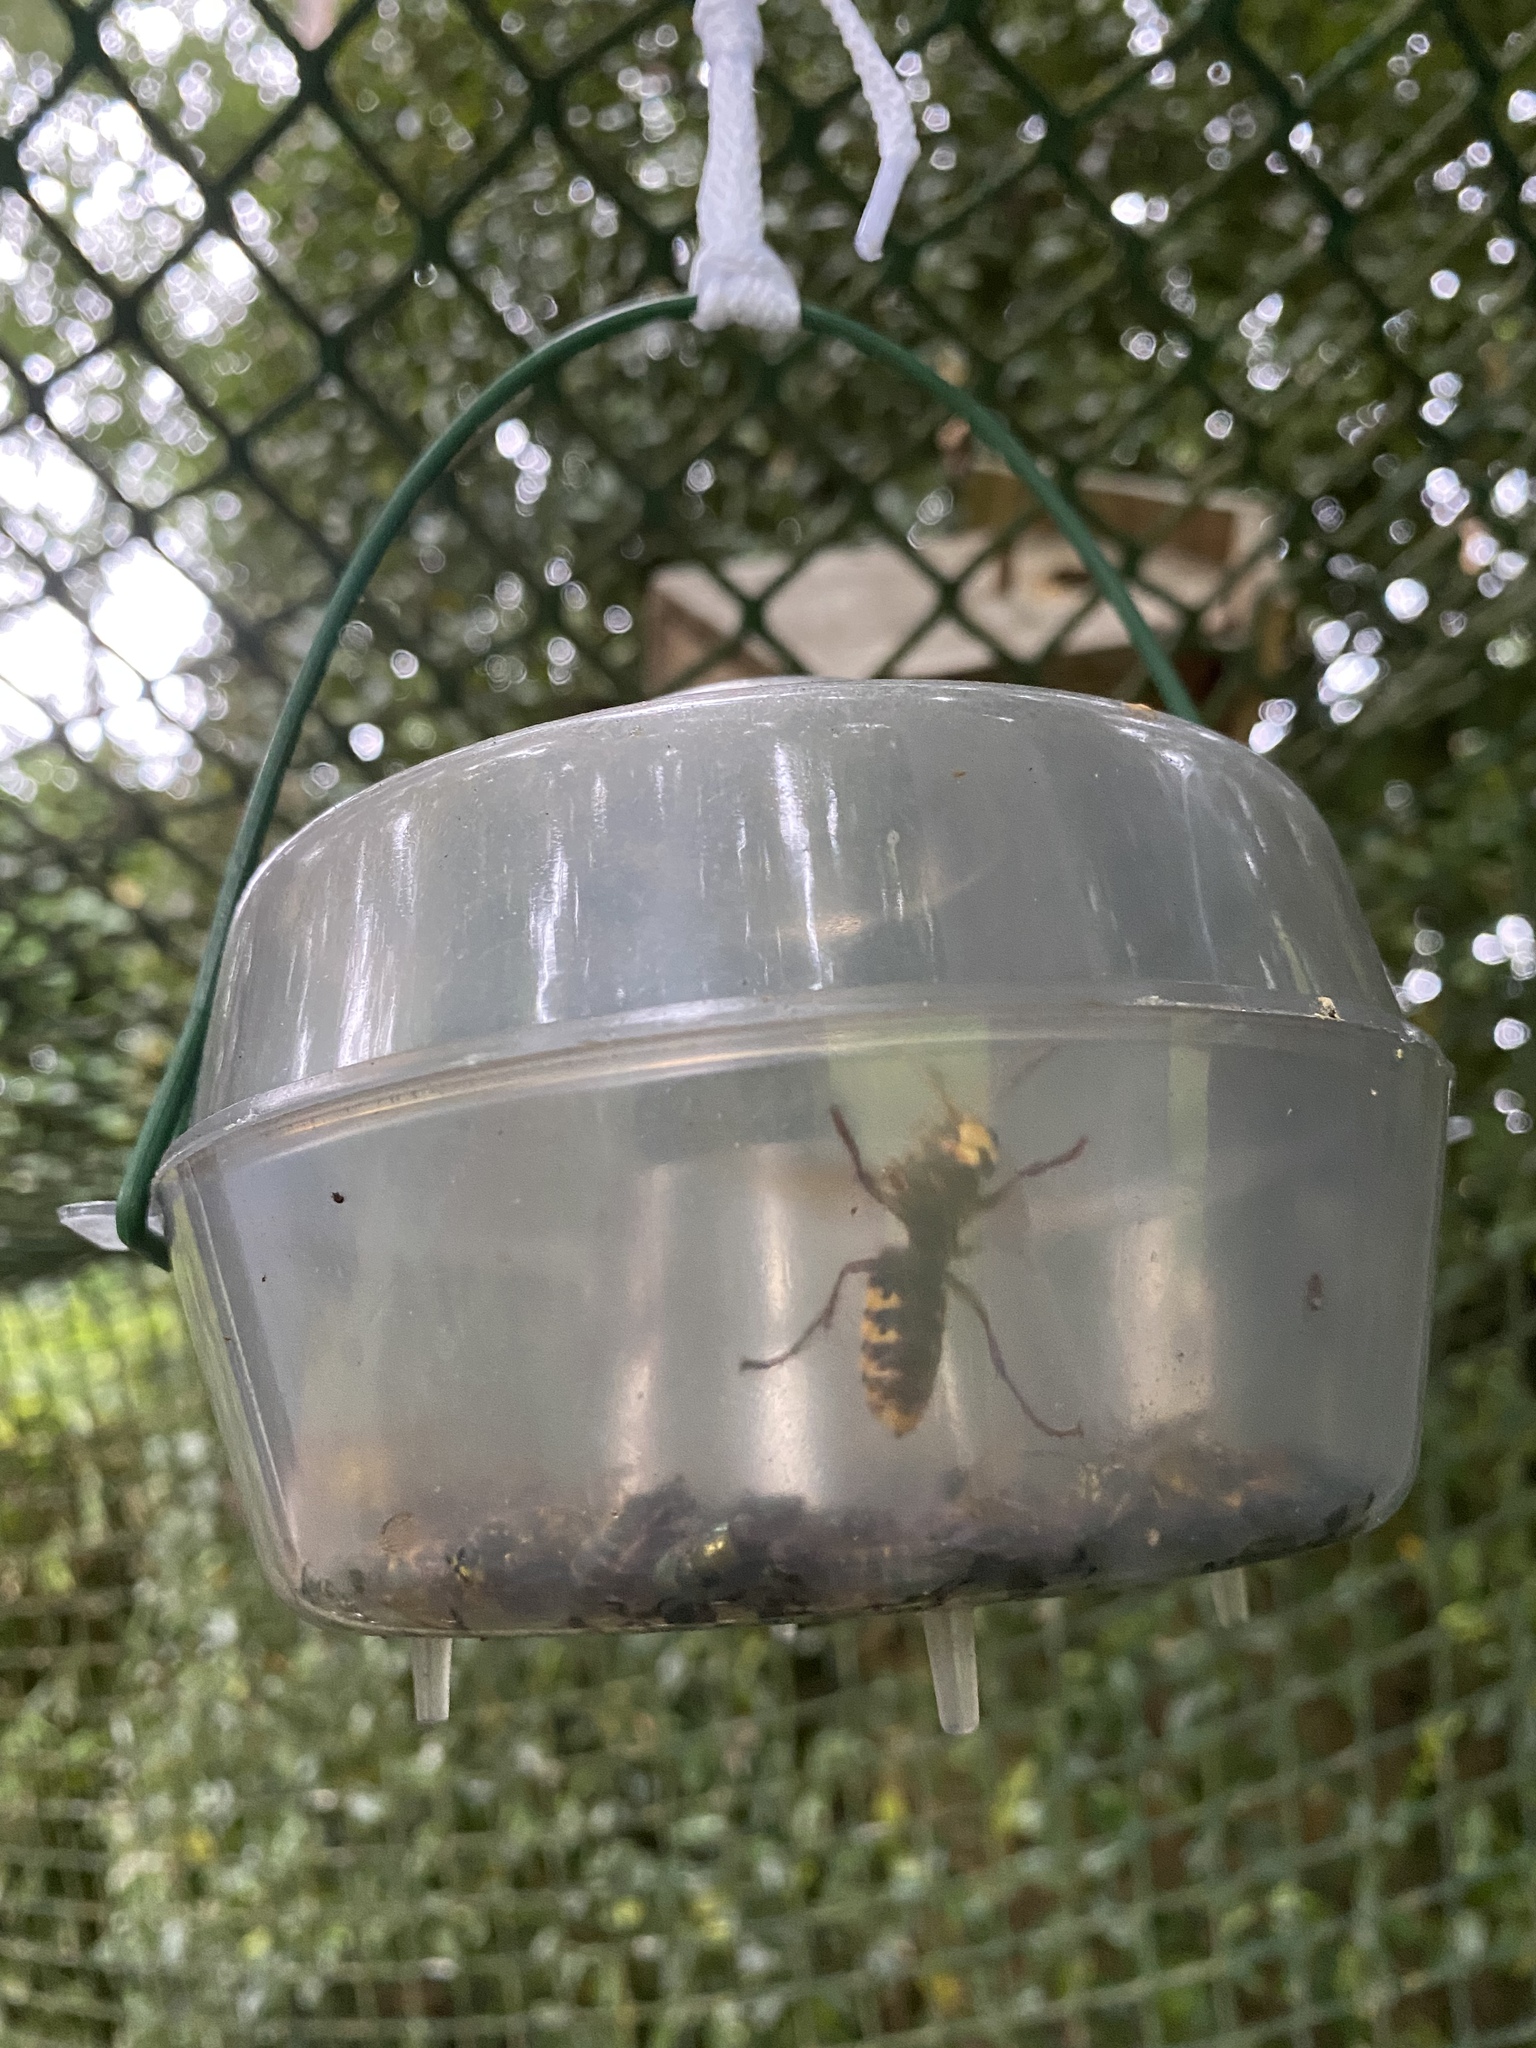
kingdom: Animalia
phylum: Arthropoda
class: Insecta
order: Hymenoptera
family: Vespidae
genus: Vespa
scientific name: Vespa crabro
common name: Hornet
